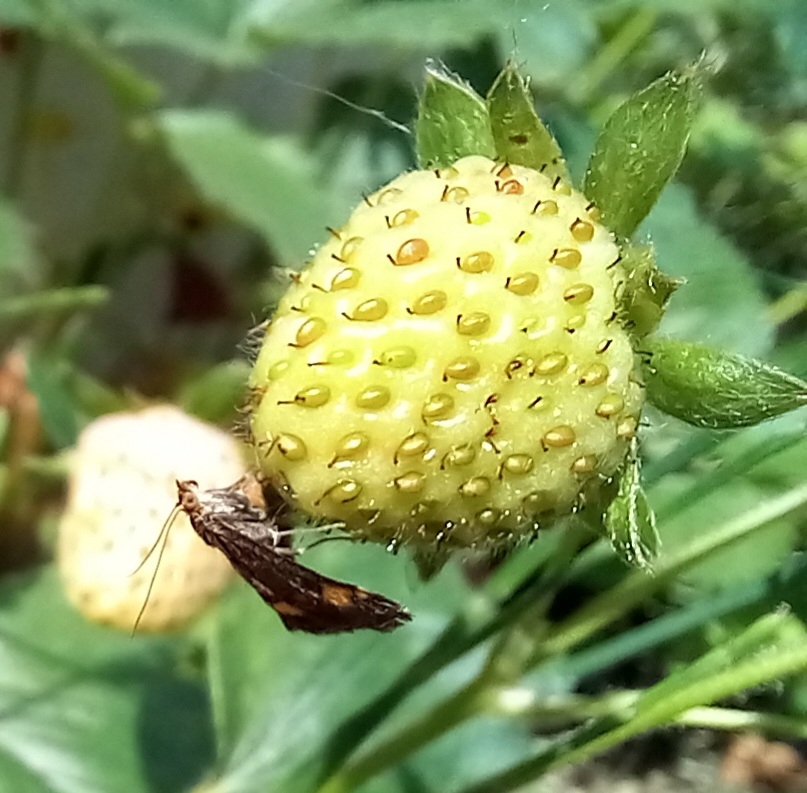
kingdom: Animalia
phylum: Arthropoda
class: Insecta
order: Lepidoptera
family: Crambidae
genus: Pyrausta
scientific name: Pyrausta aurata
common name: Small purple & gold
